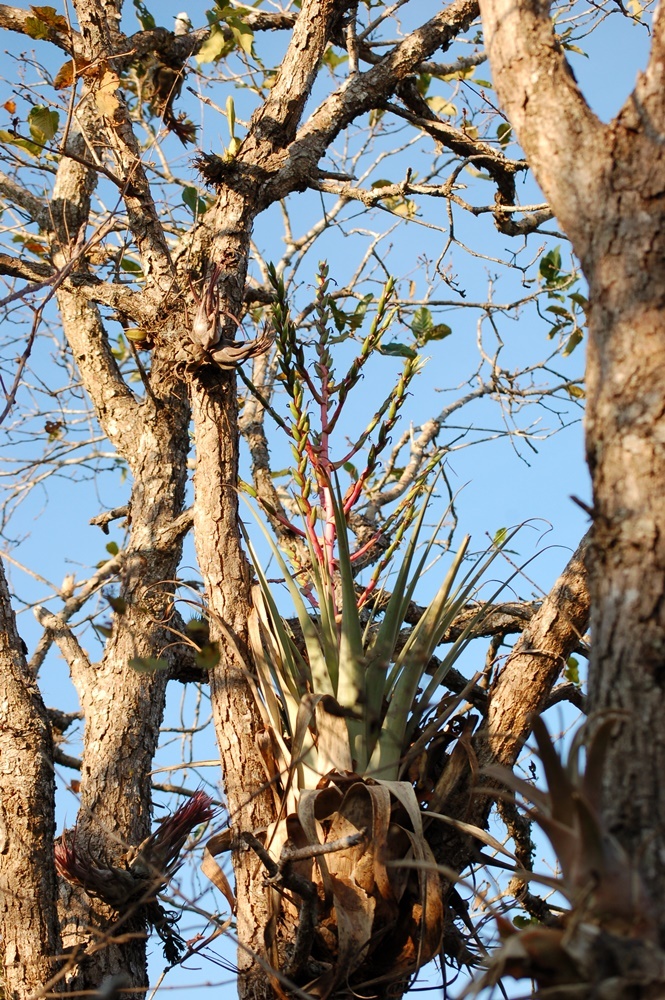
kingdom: Plantae
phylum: Tracheophyta
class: Liliopsida
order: Poales
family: Bromeliaceae
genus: Tillandsia
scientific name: Tillandsia comitanensis
